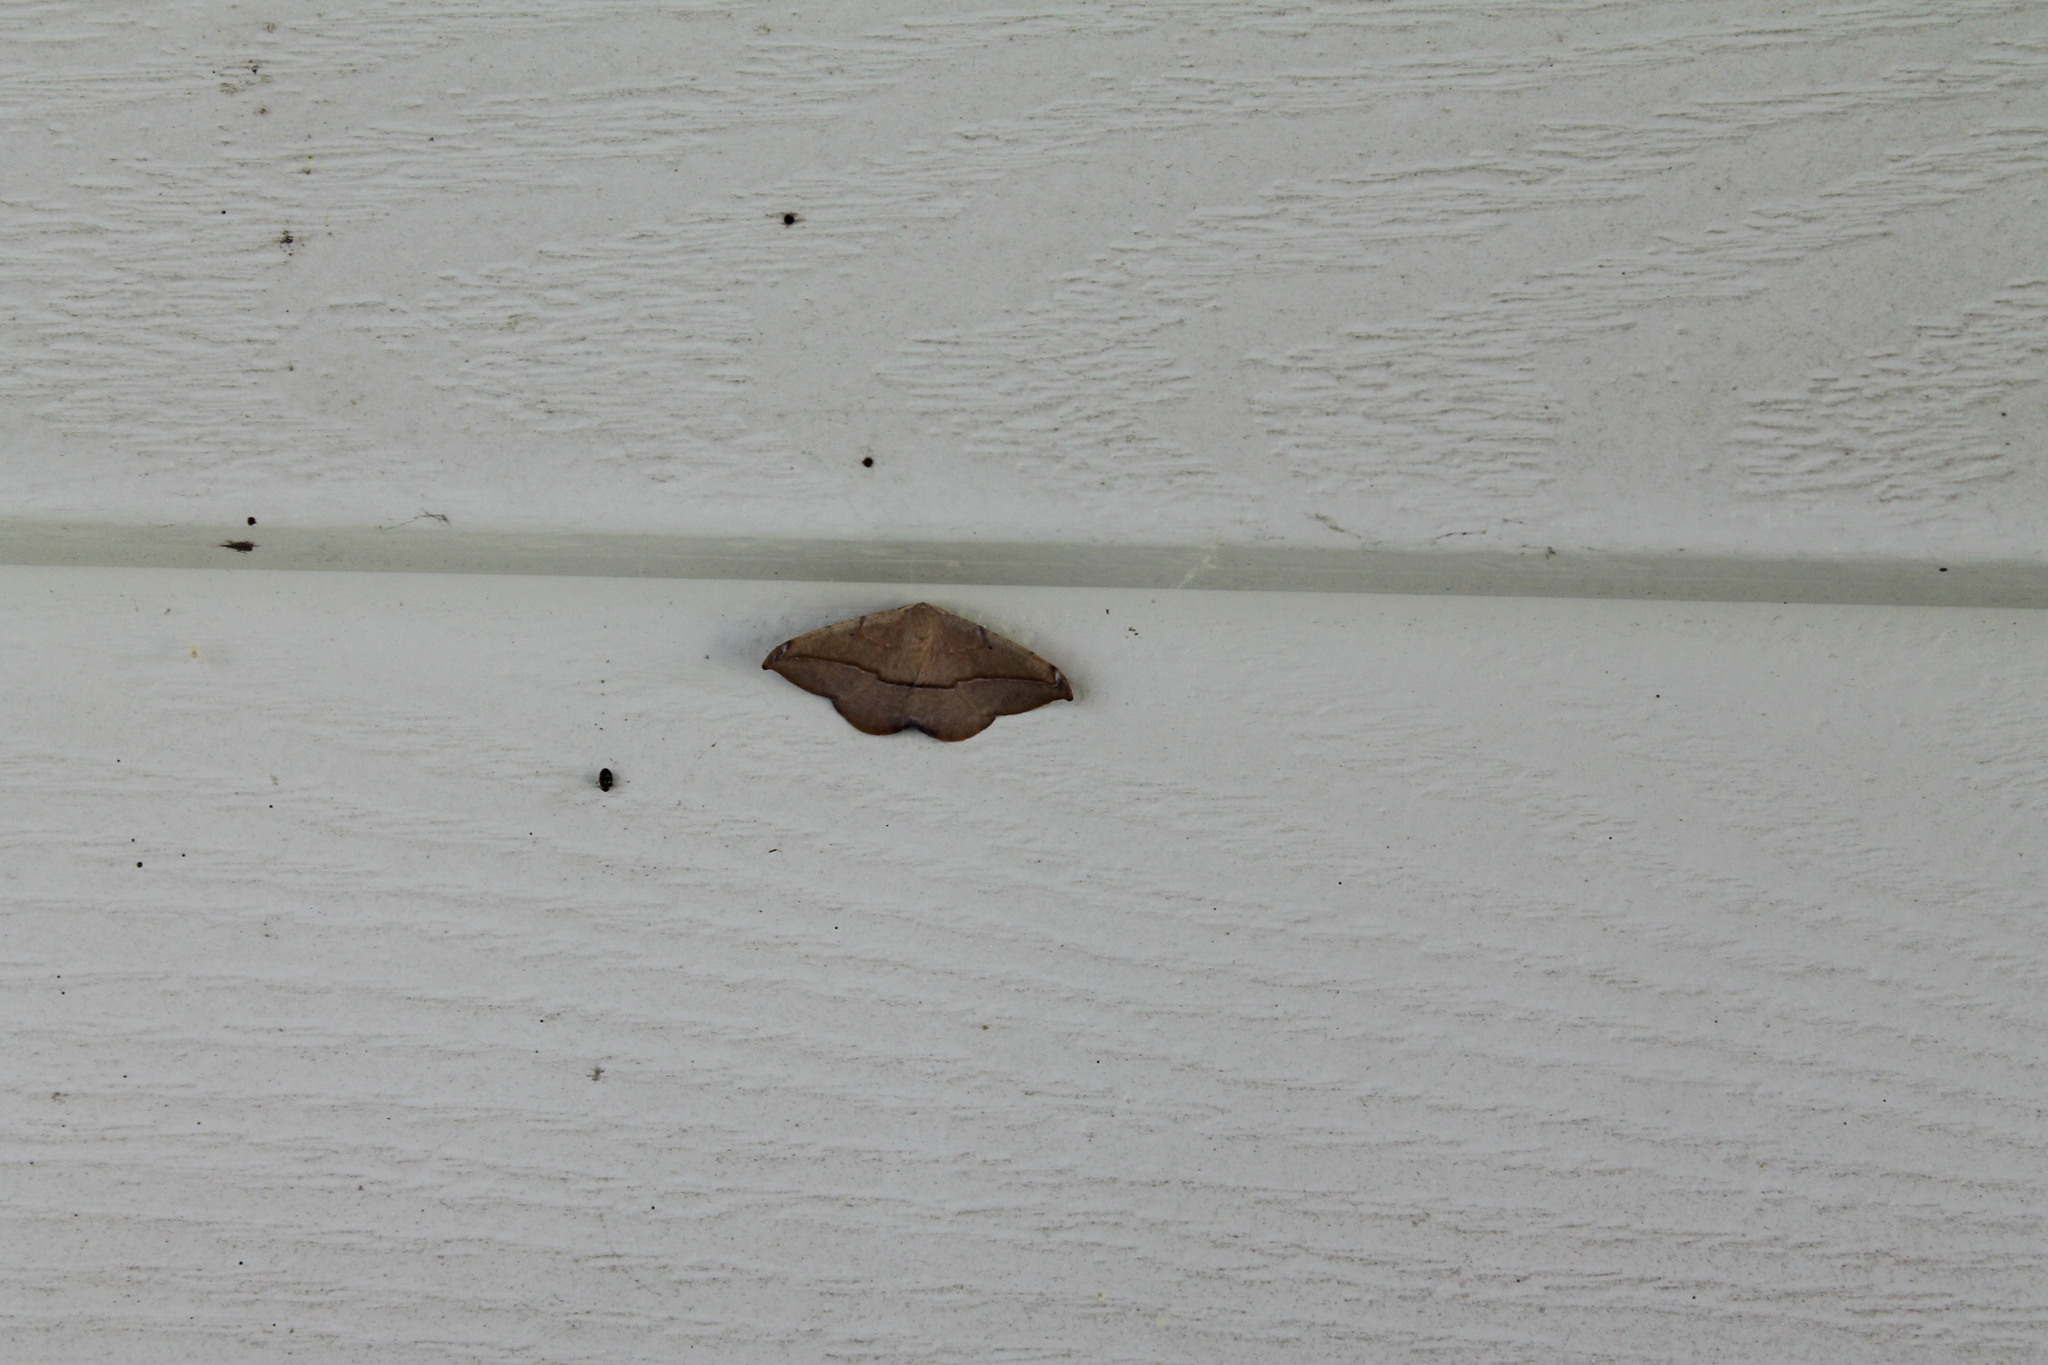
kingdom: Animalia
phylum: Arthropoda
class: Insecta
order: Lepidoptera
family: Geometridae
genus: Patalene
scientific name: Patalene olyzonaria
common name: Juniper geometer moth
